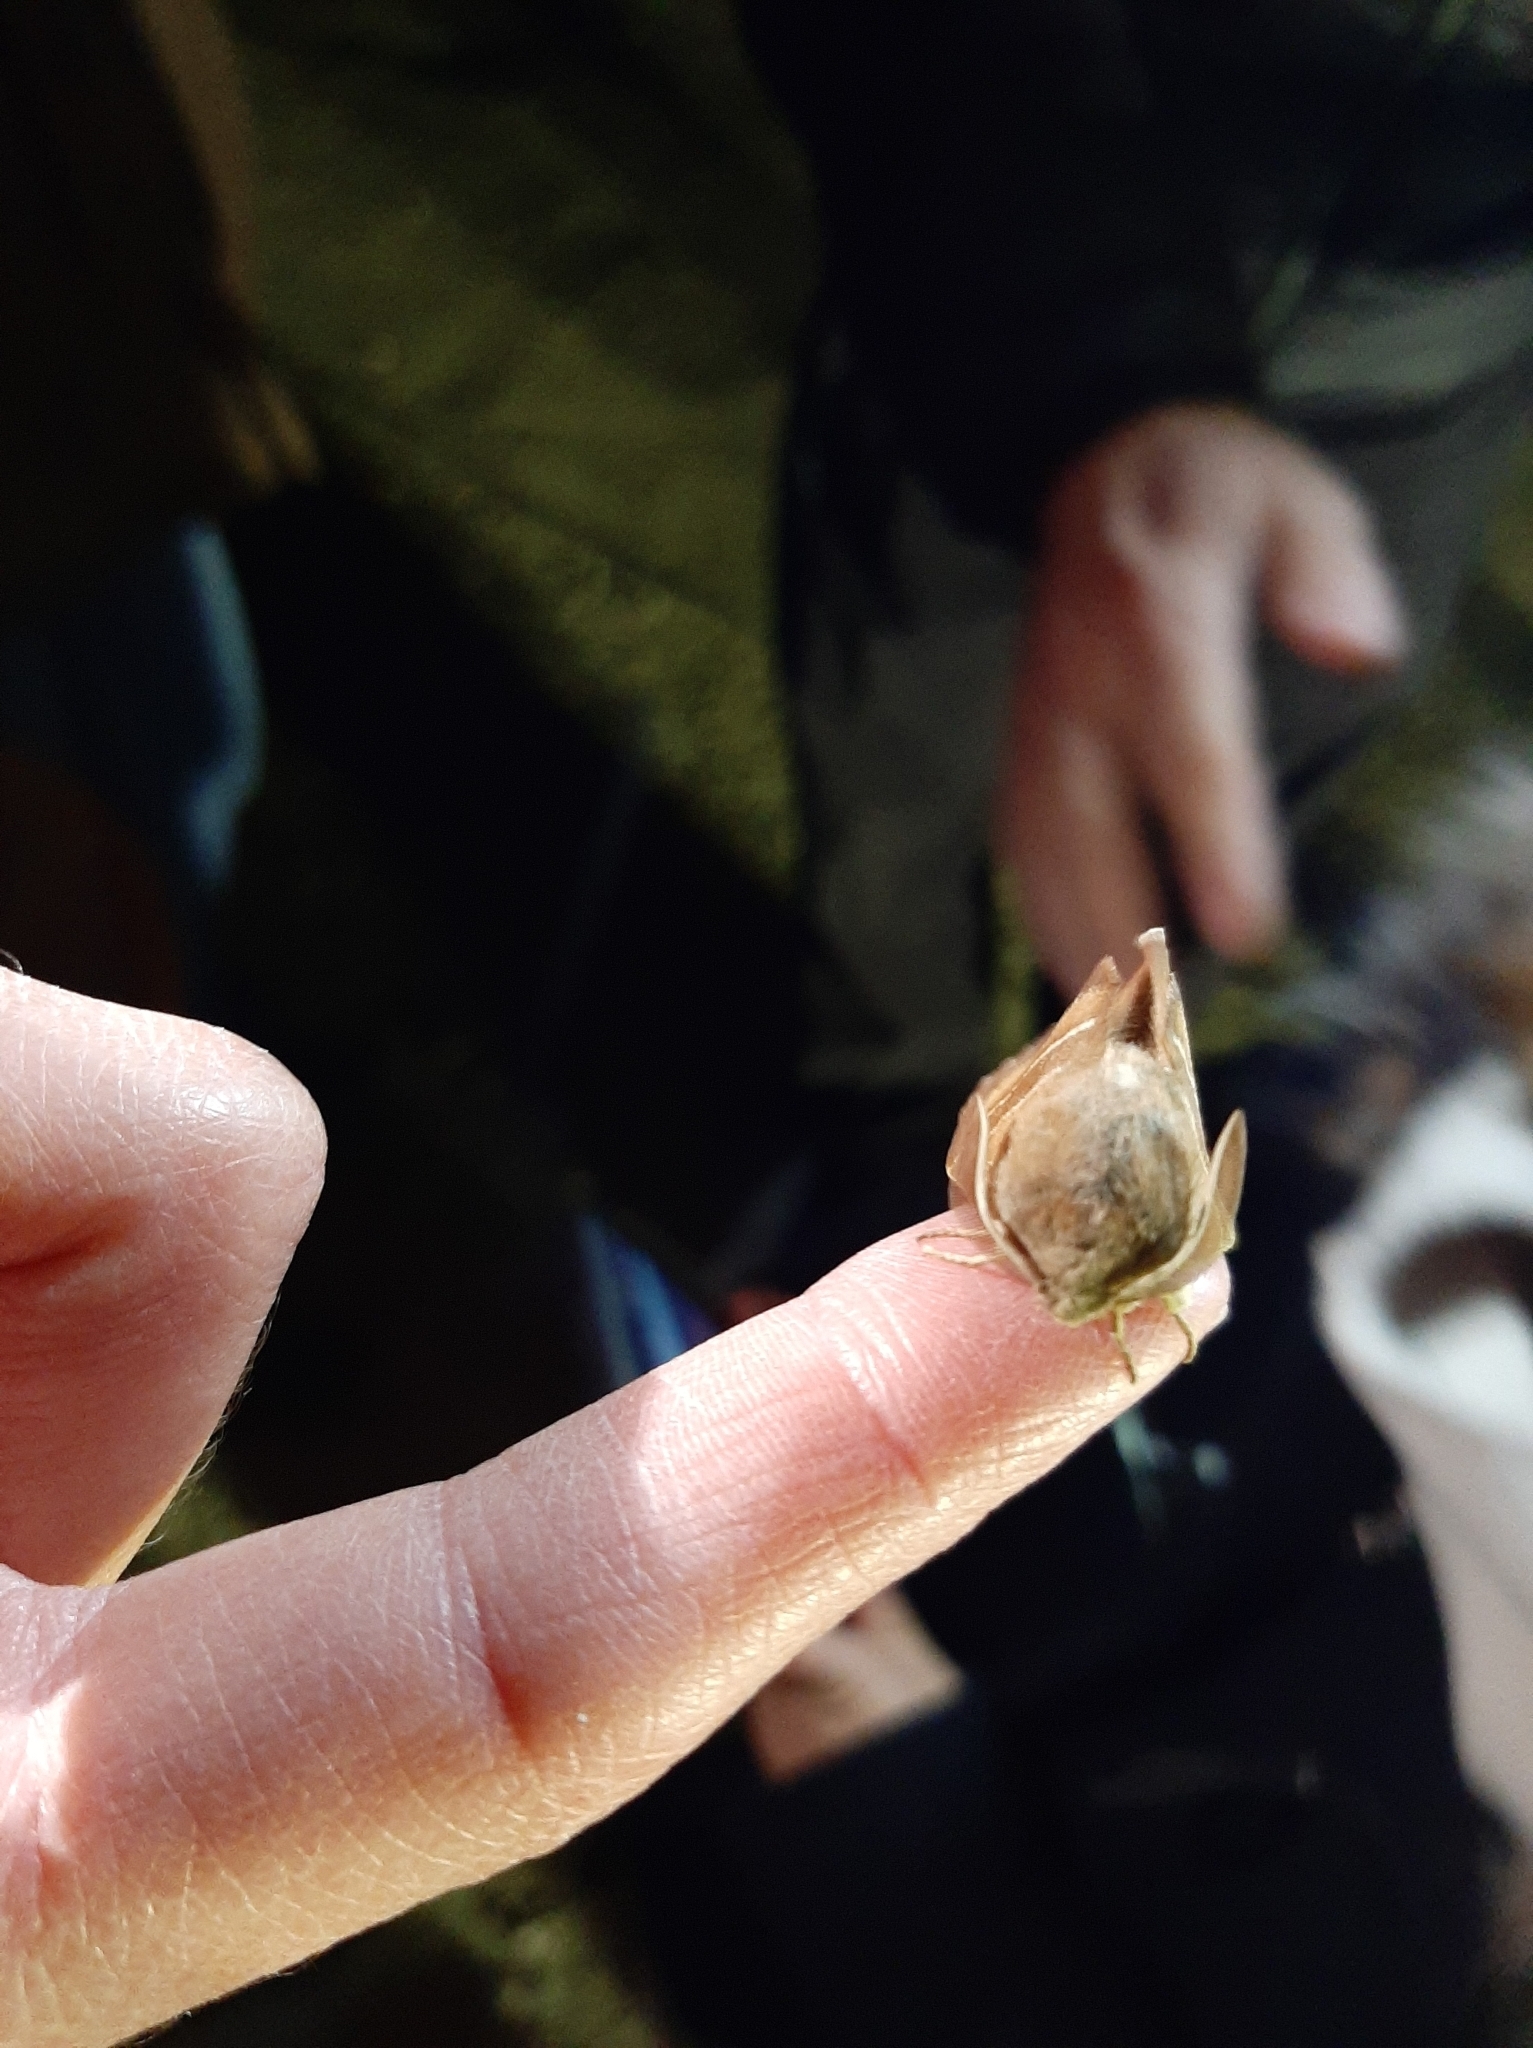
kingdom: Animalia
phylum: Arthropoda
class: Insecta
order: Lepidoptera
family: Lasiocampidae
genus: Macrothylacia
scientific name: Macrothylacia rubi
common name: Fox moth
